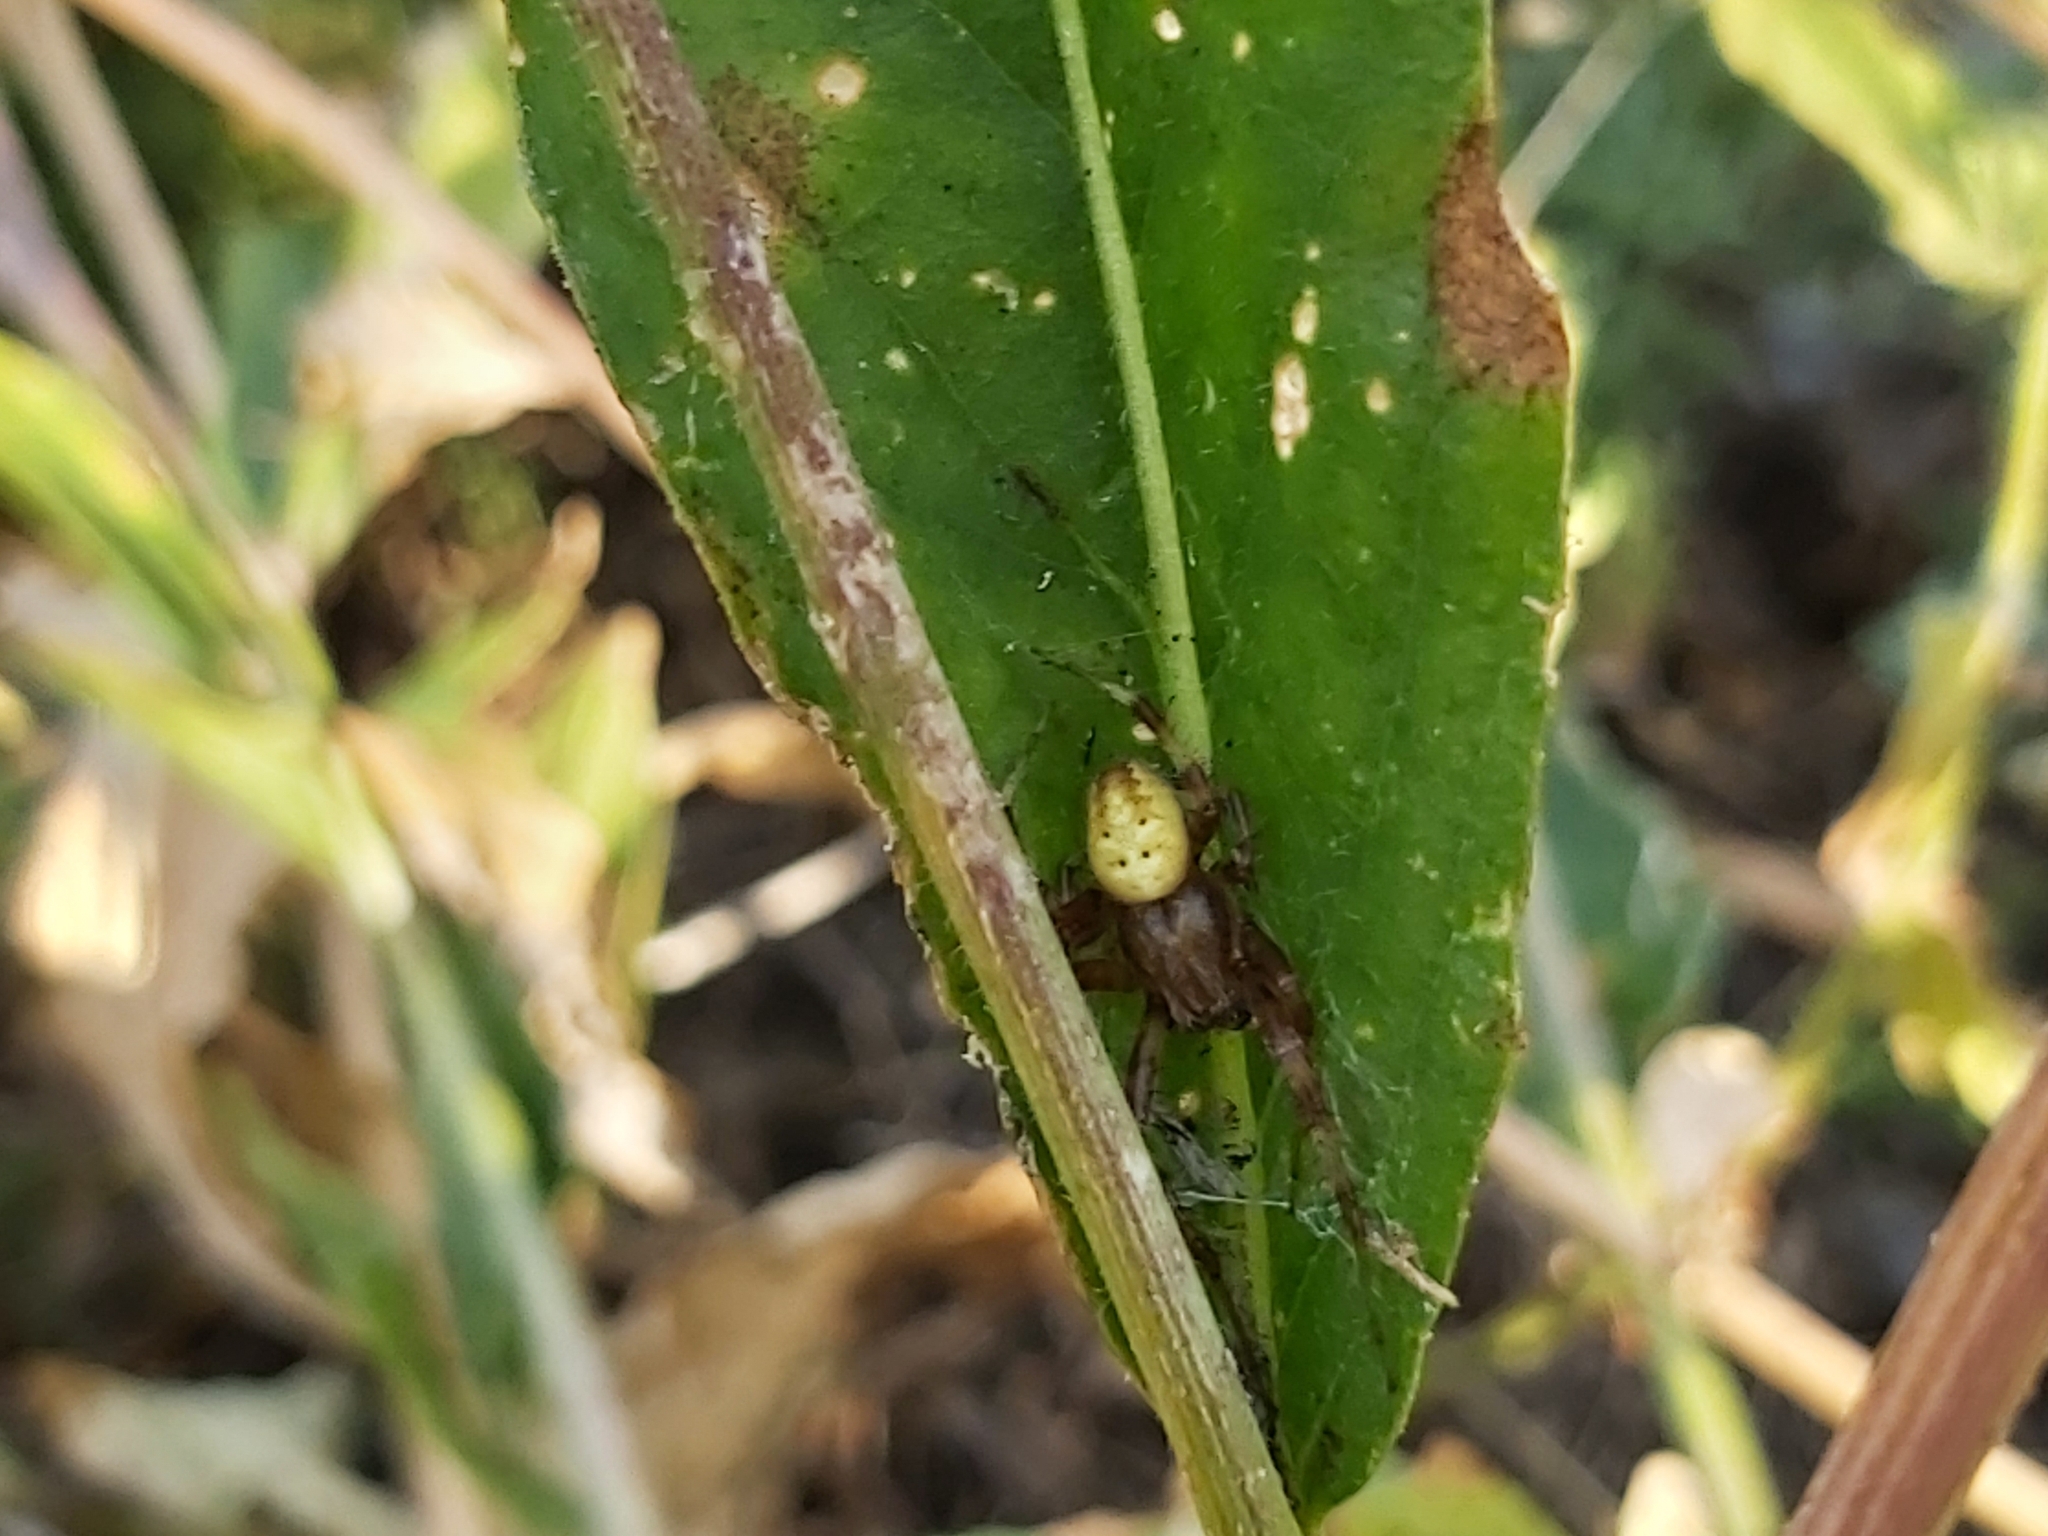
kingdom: Animalia
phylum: Arthropoda
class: Arachnida
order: Araneae
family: Araneidae
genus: Araneus
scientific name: Araneus quadratus
